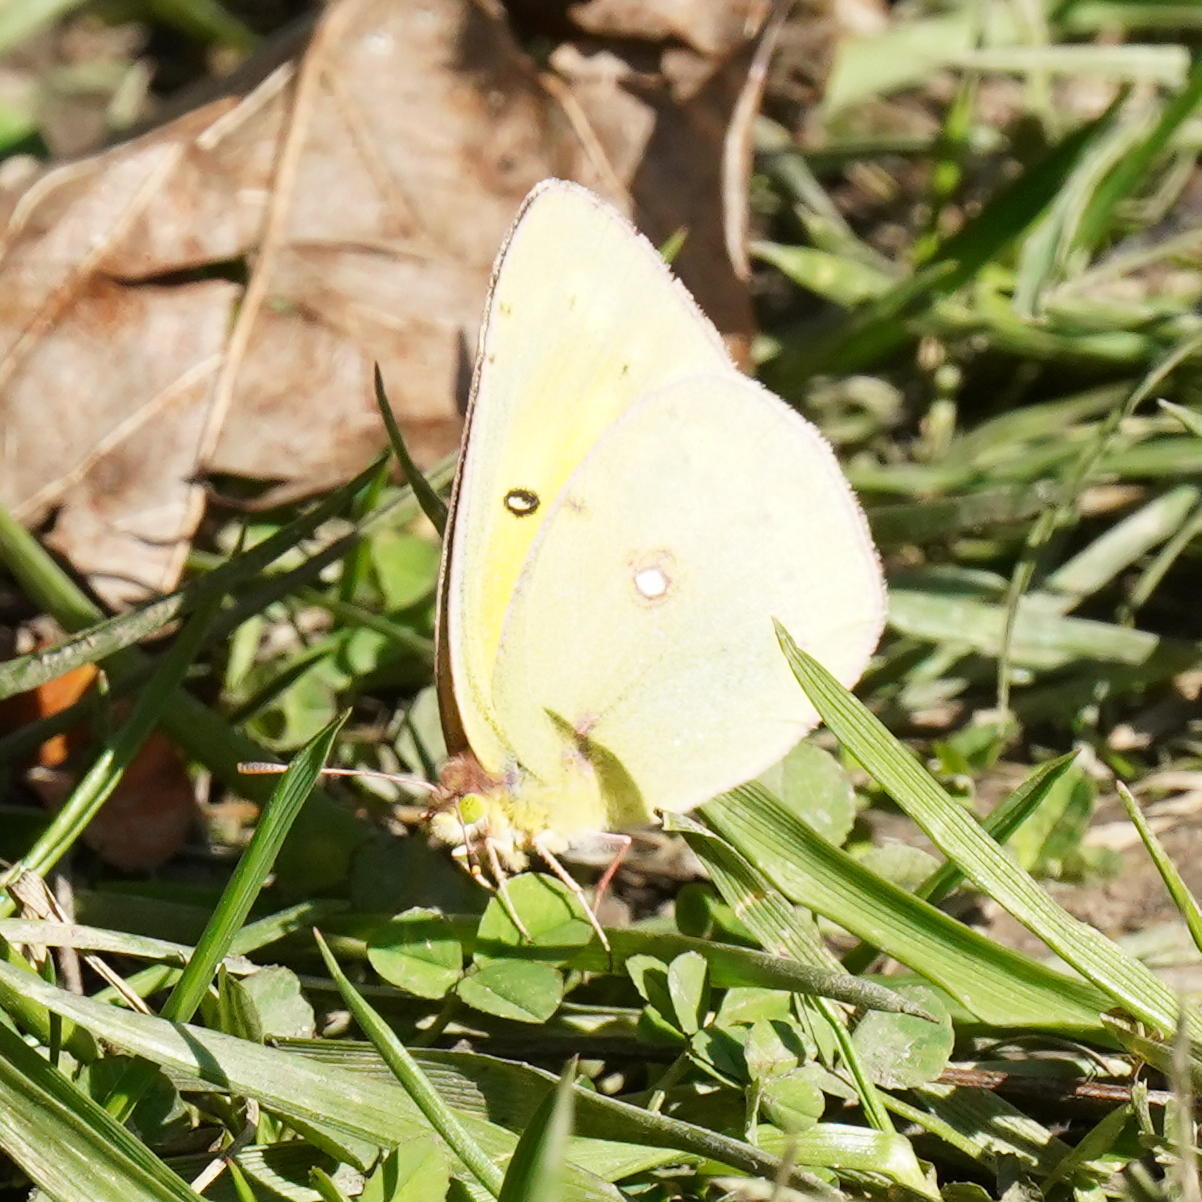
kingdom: Animalia
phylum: Arthropoda
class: Insecta
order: Lepidoptera
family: Pieridae
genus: Colias
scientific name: Colias eurytheme
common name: Alfalfa butterfly
